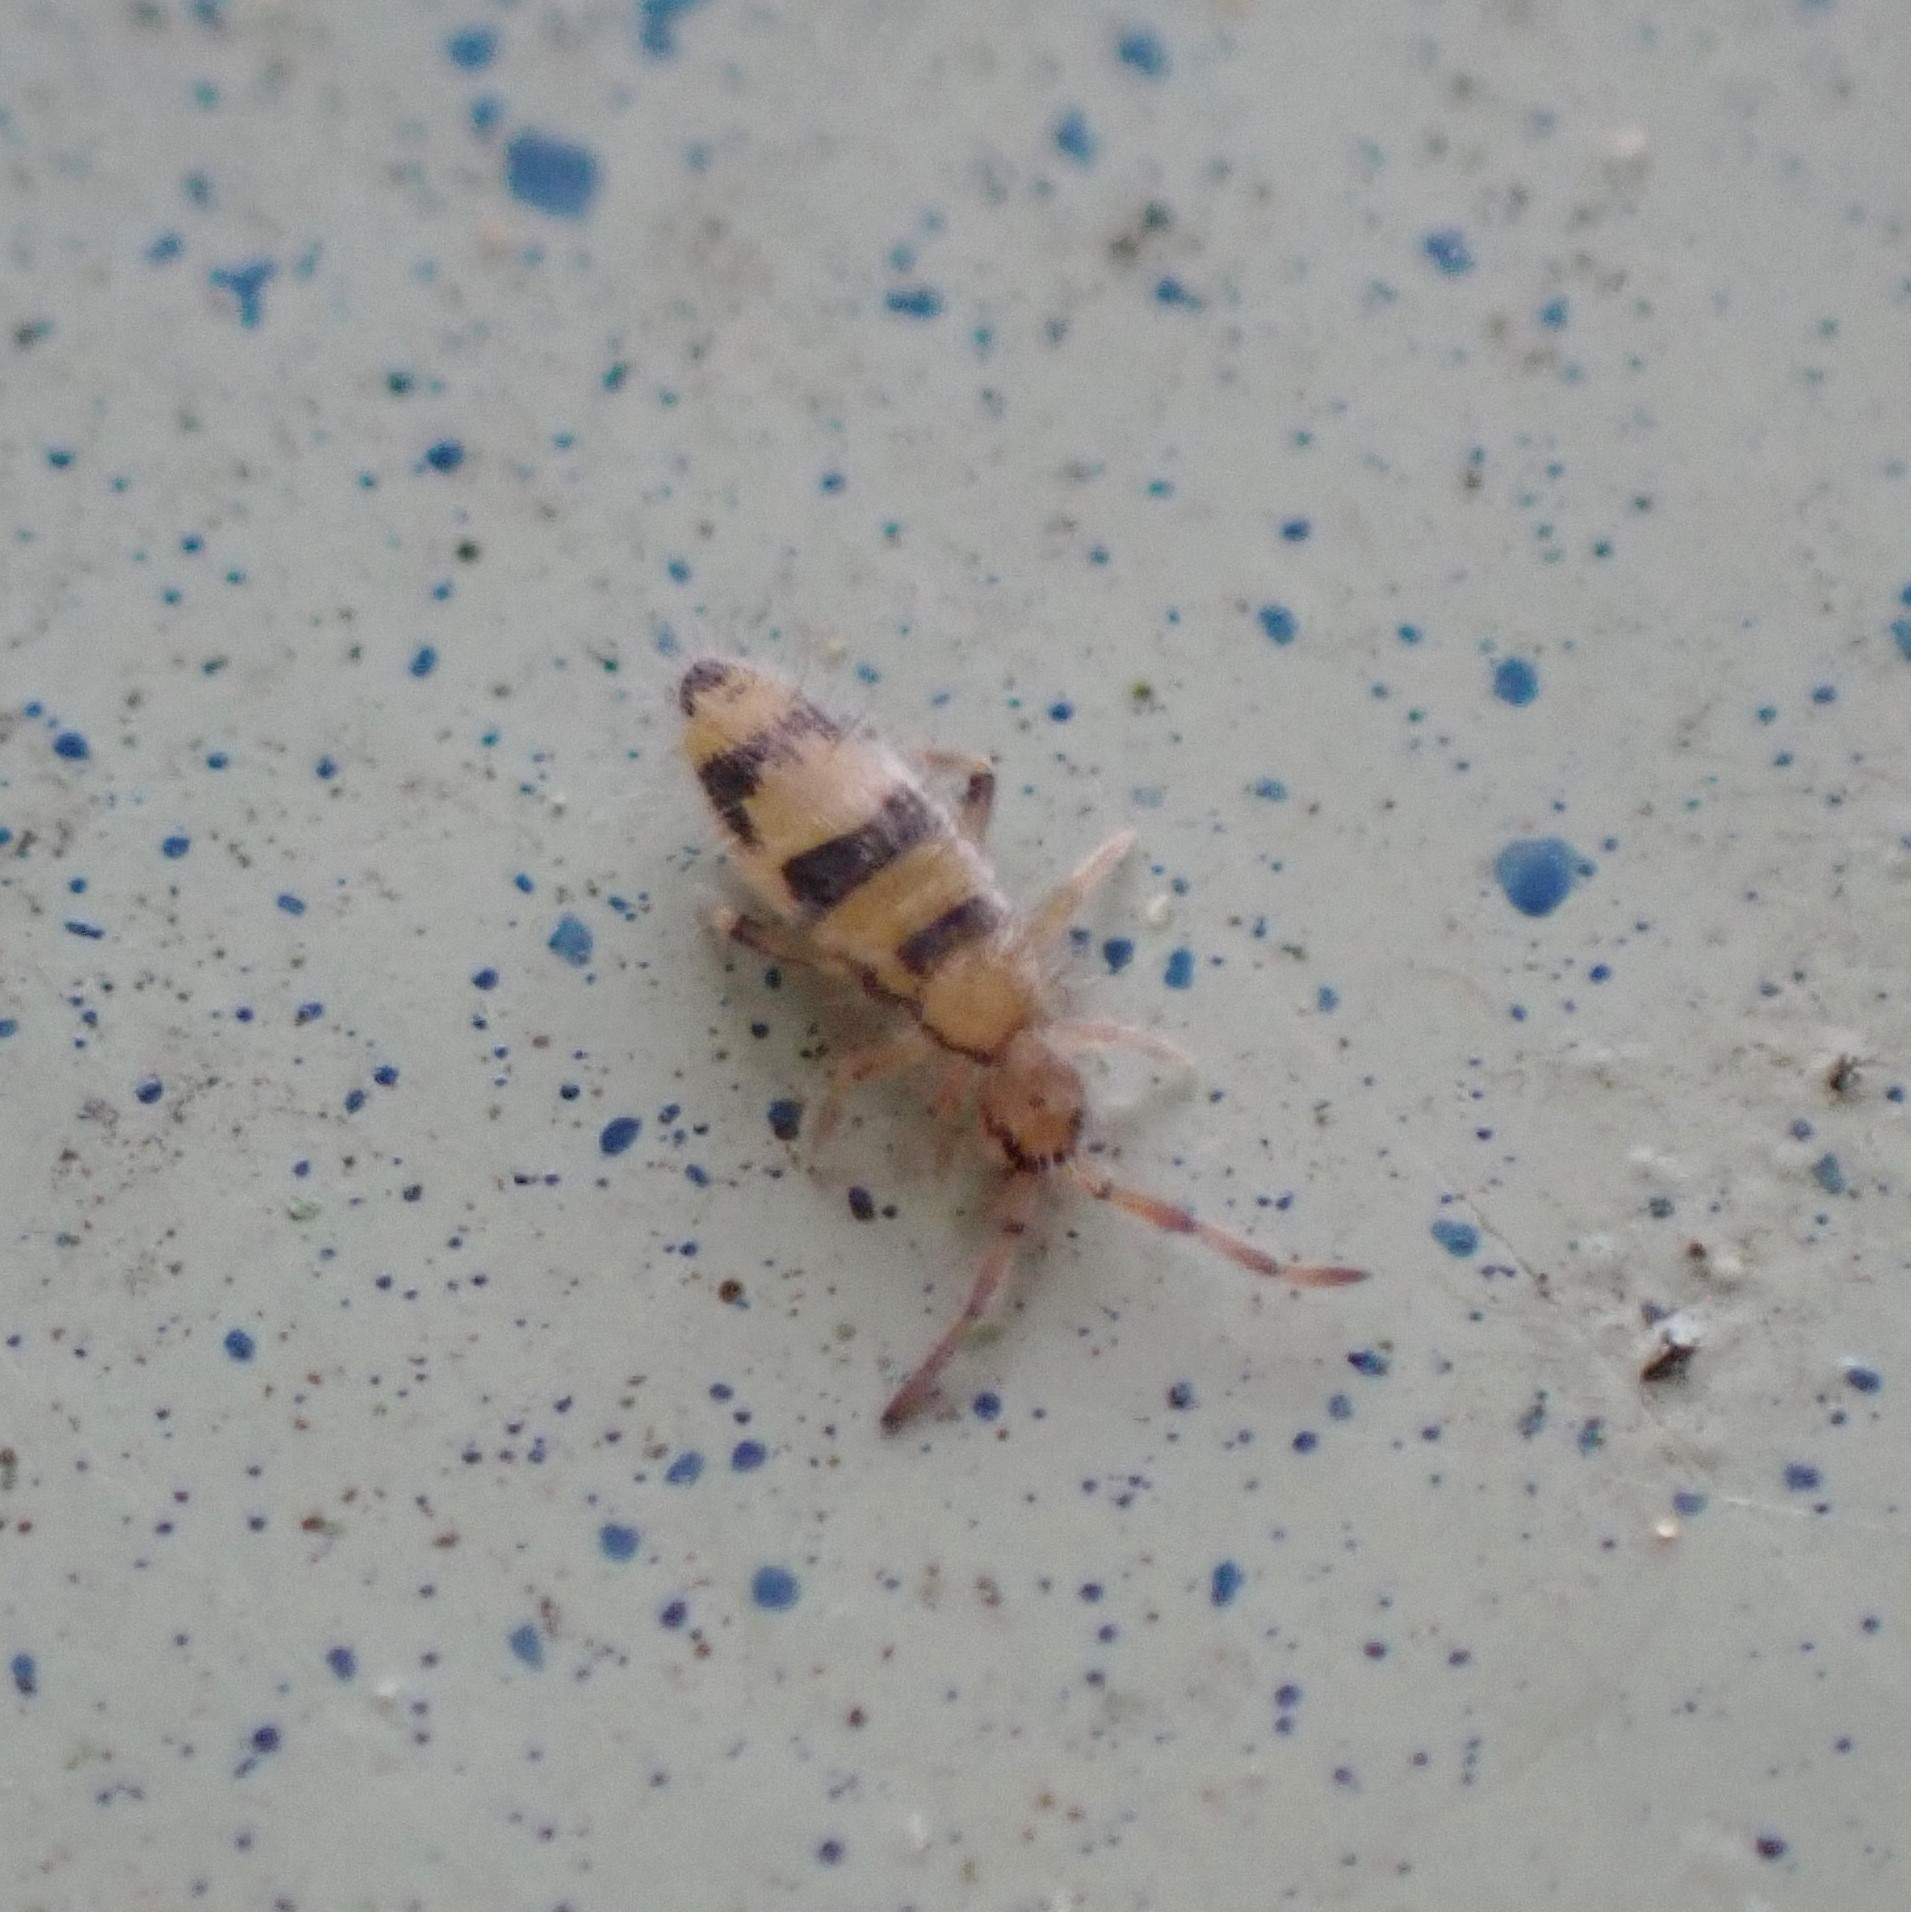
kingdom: Animalia
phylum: Arthropoda
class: Collembola
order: Entomobryomorpha
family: Entomobryidae
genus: Entomobrya
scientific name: Entomobrya triangularis
